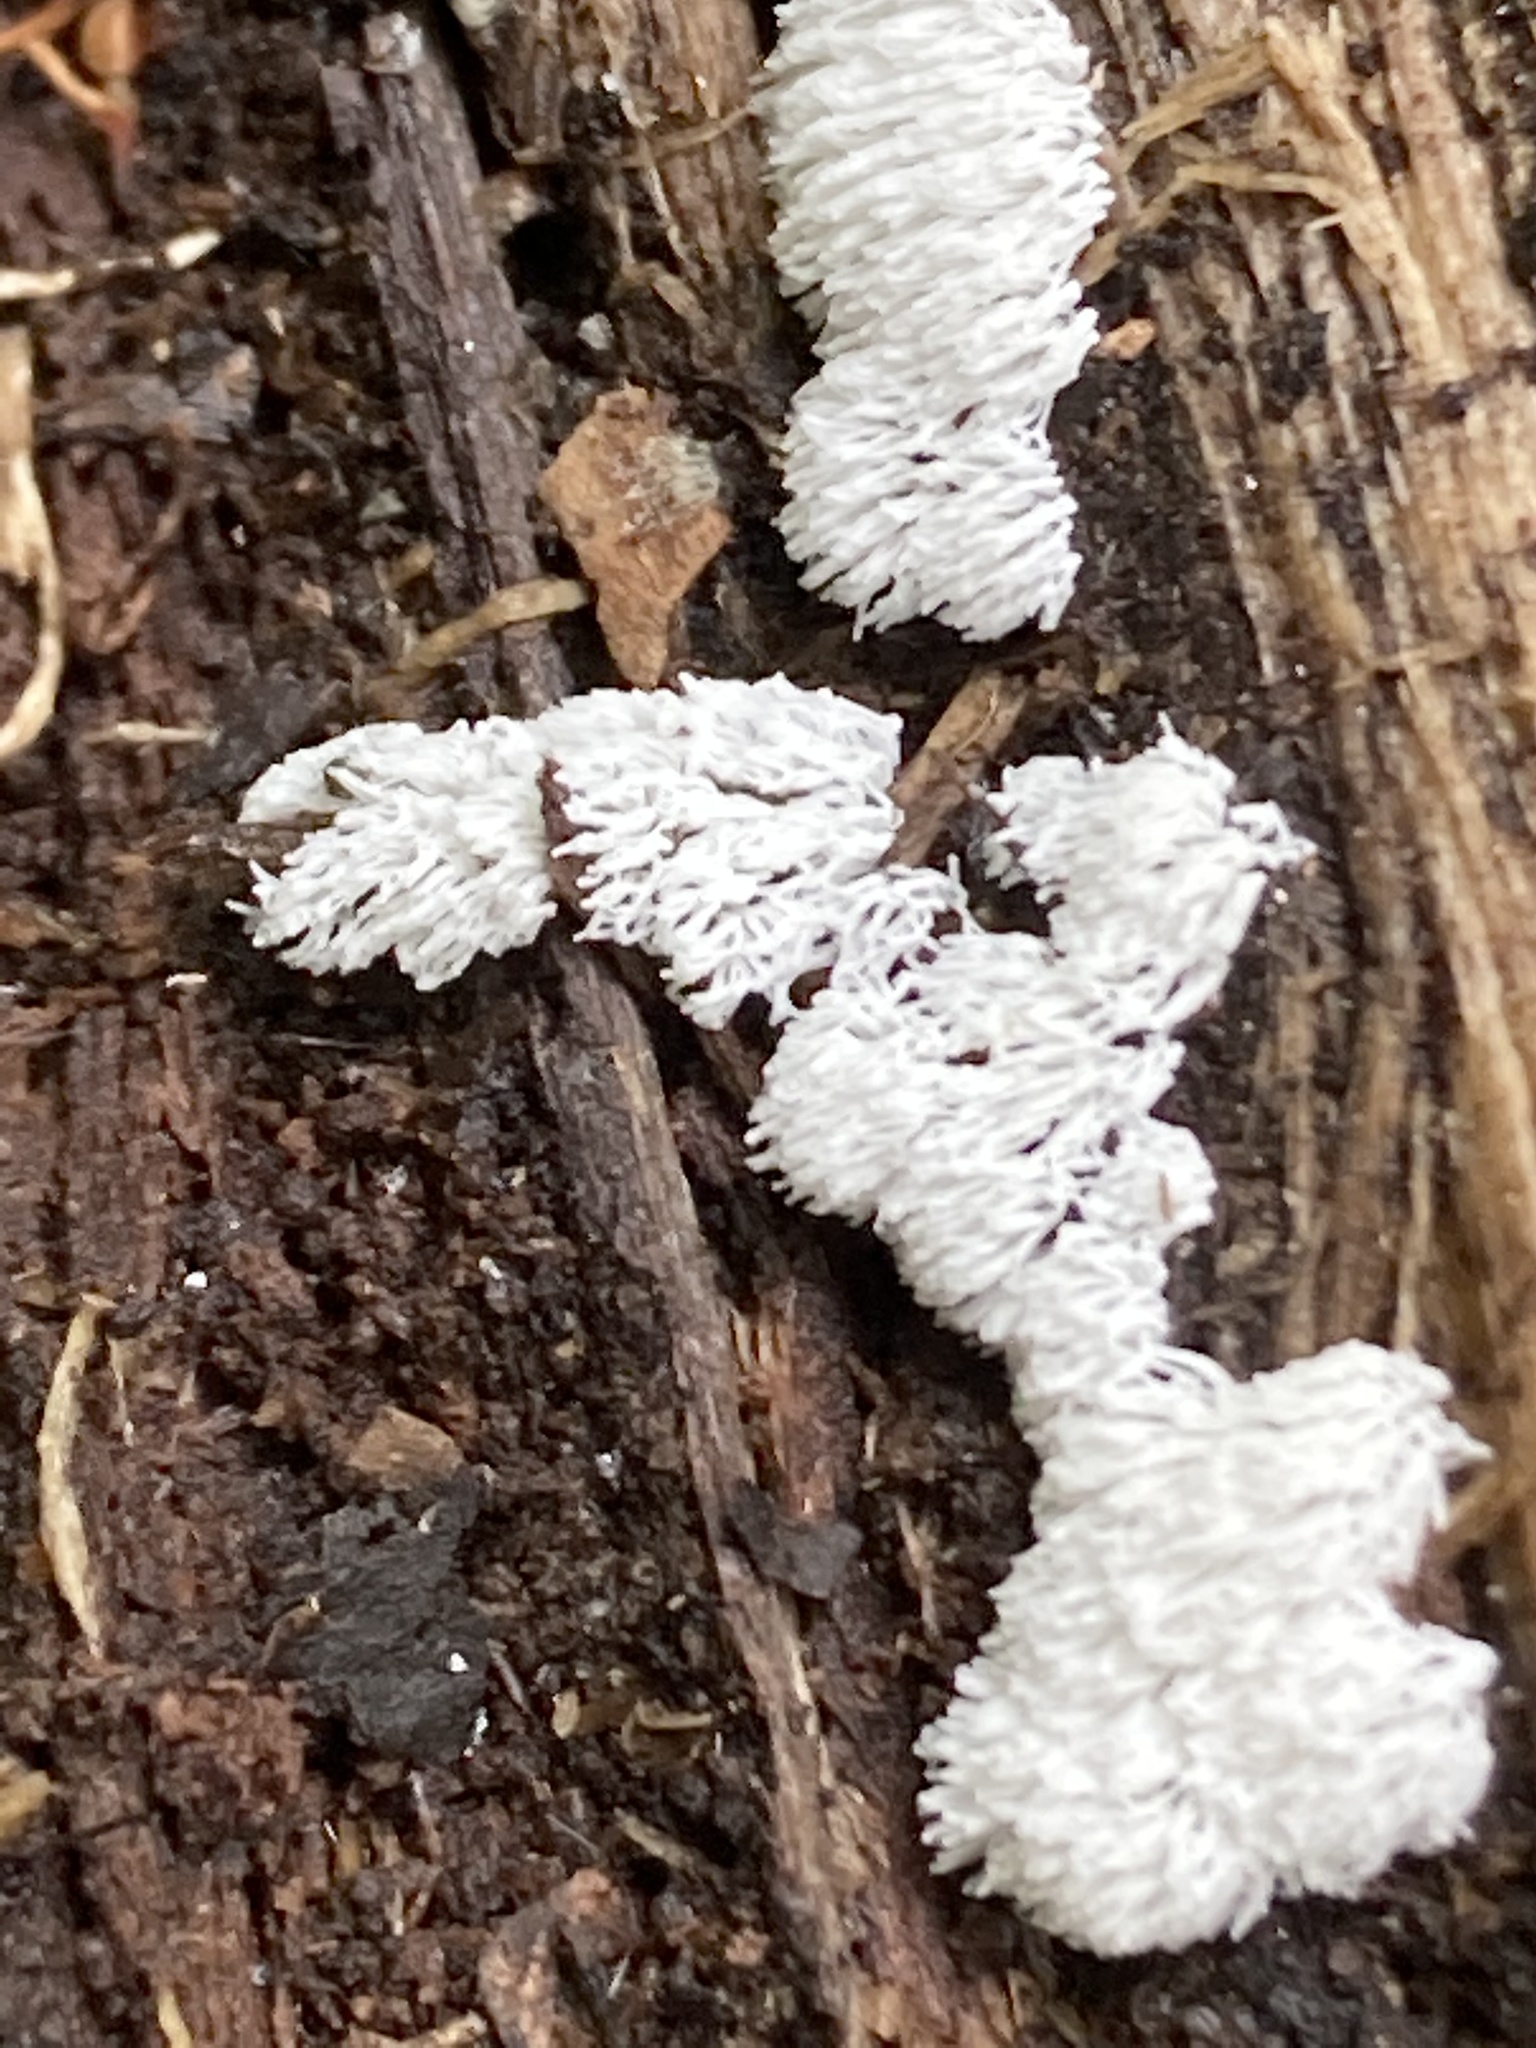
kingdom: Protozoa
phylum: Mycetozoa
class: Protosteliomycetes
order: Ceratiomyxales
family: Ceratiomyxaceae
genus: Ceratiomyxa
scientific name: Ceratiomyxa fruticulosa
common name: Honeycomb coral slime mold
